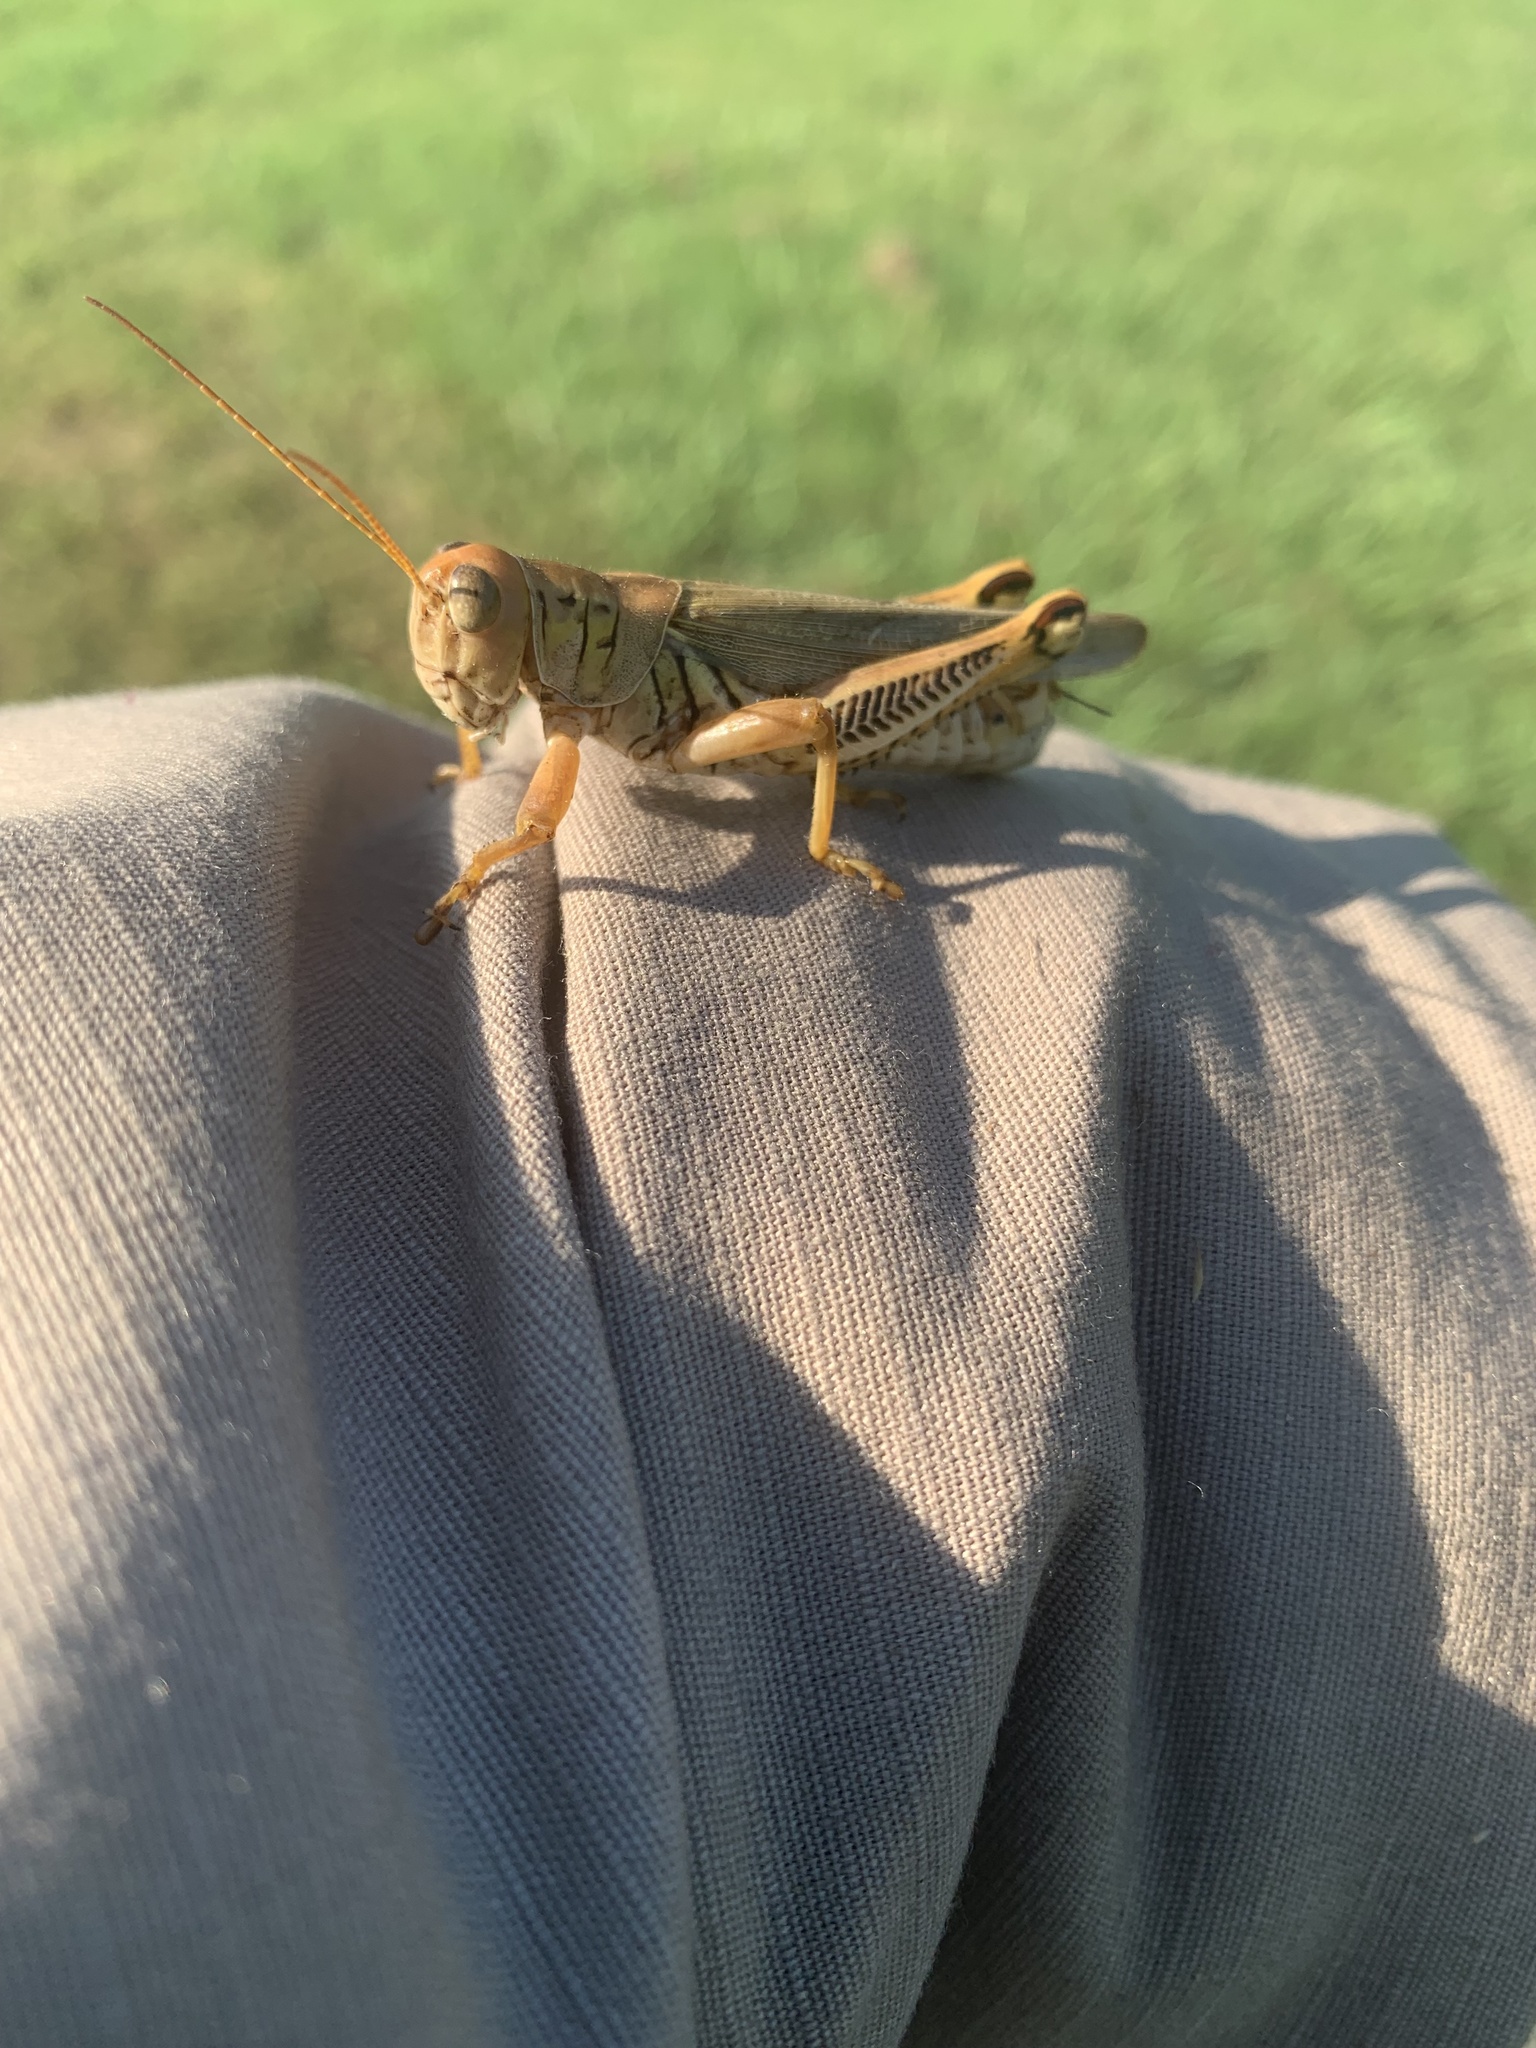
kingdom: Animalia
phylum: Arthropoda
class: Insecta
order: Orthoptera
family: Acrididae
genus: Melanoplus
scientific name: Melanoplus differentialis
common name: Differential grasshopper
